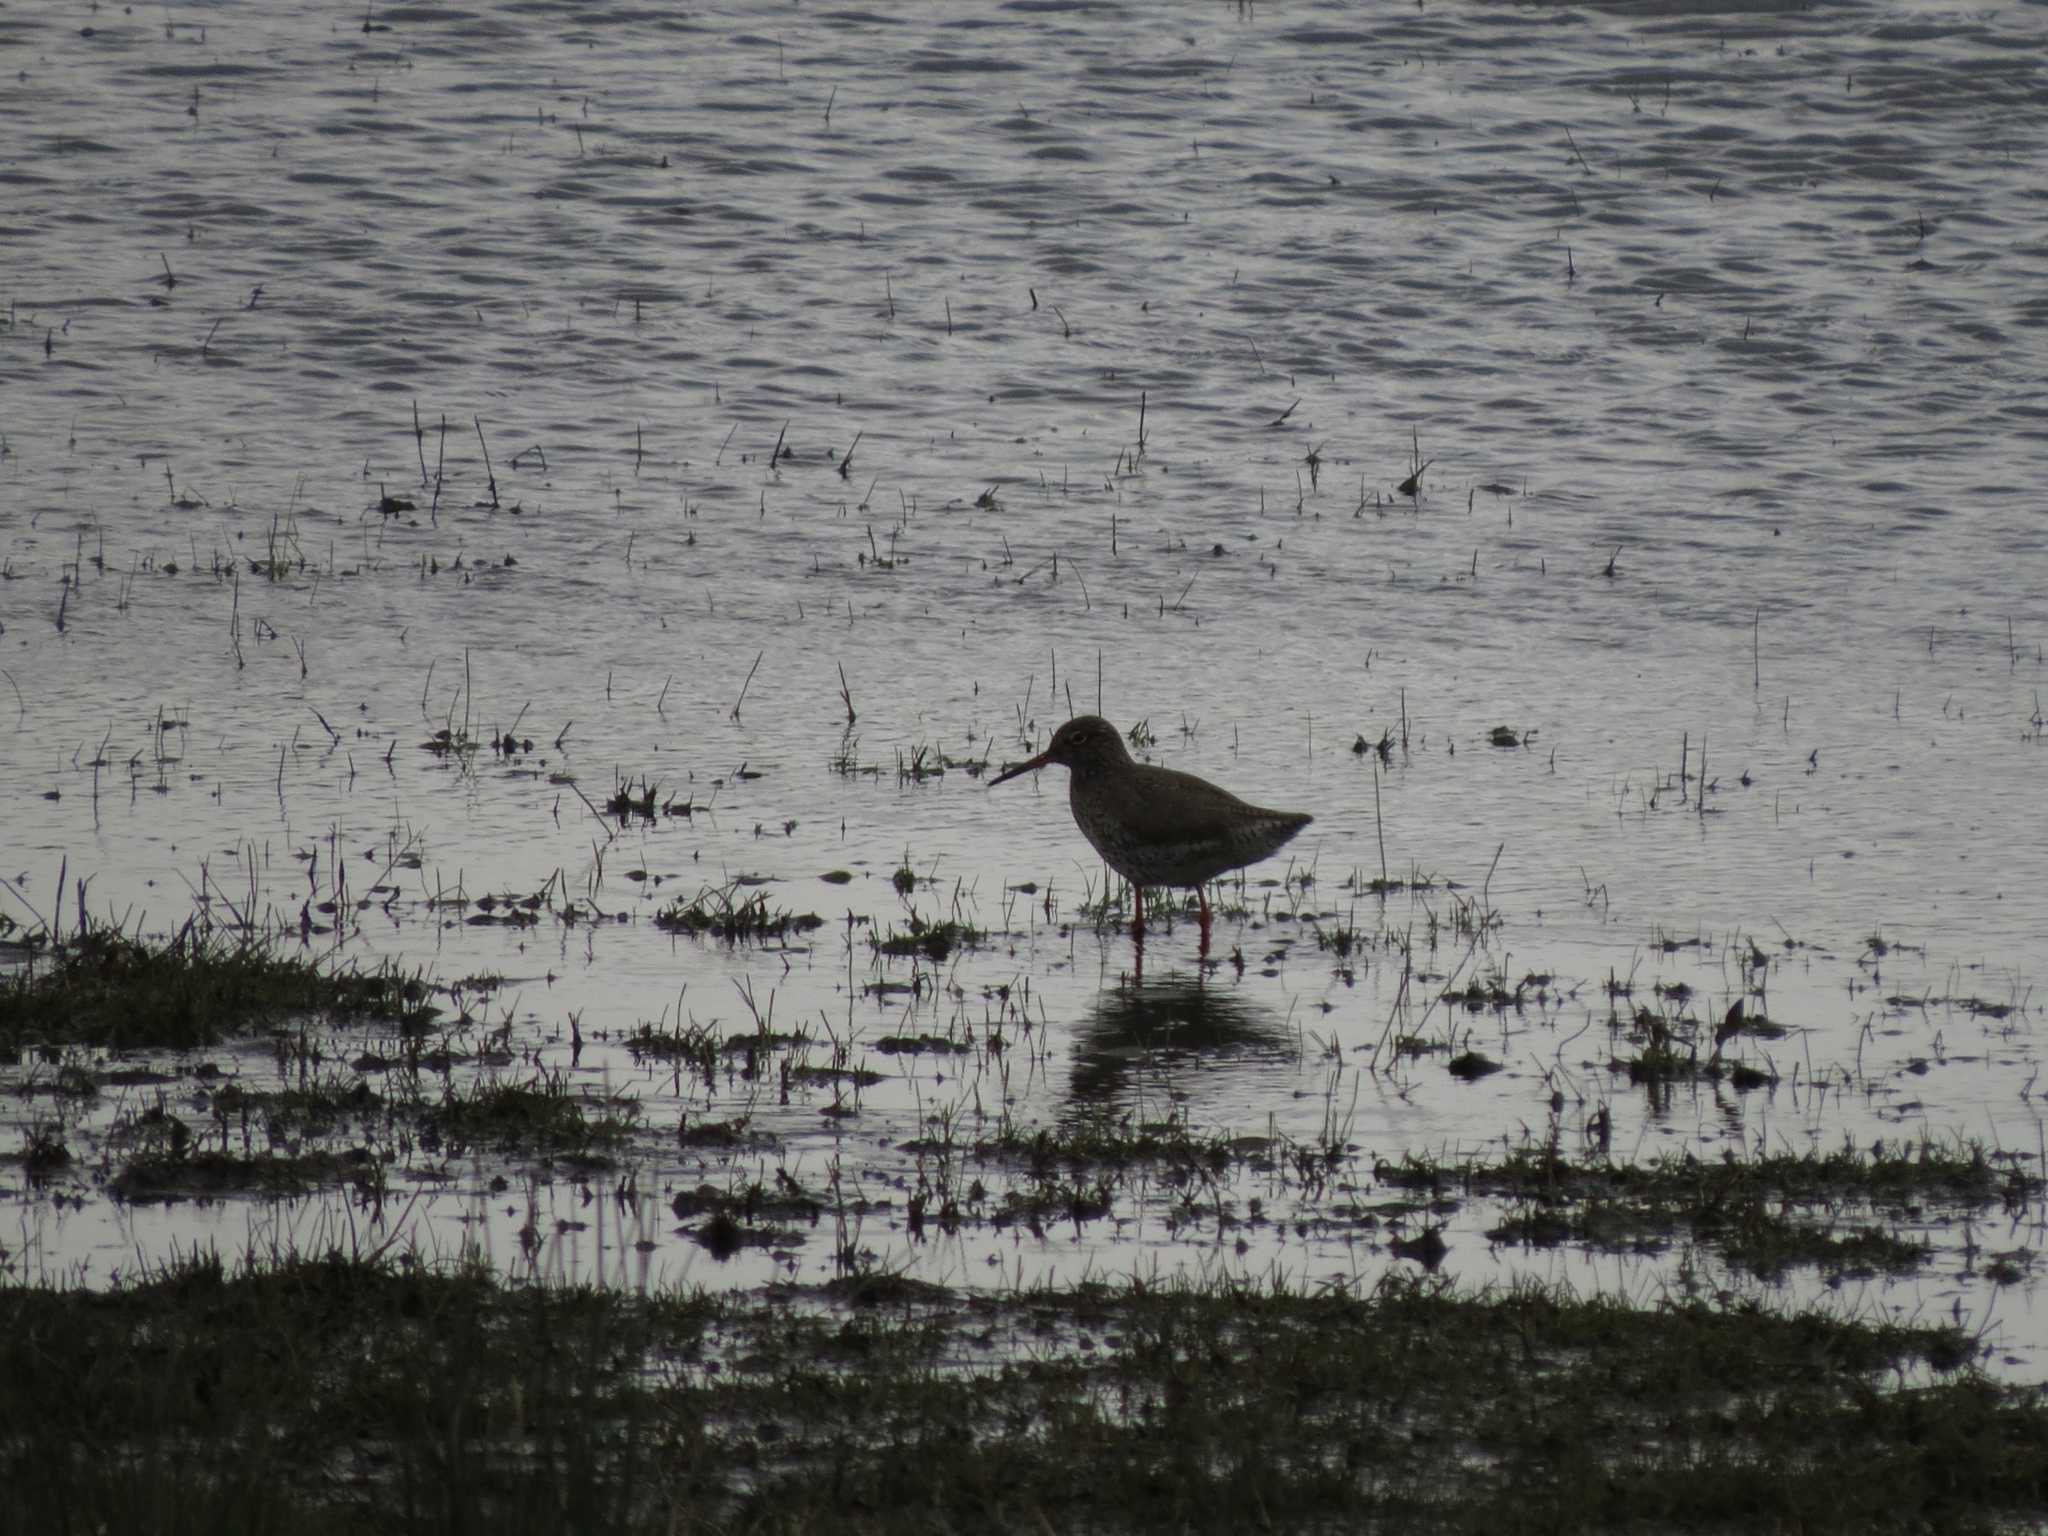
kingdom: Animalia
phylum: Chordata
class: Aves
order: Charadriiformes
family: Scolopacidae
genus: Tringa
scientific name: Tringa totanus
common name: Common redshank
